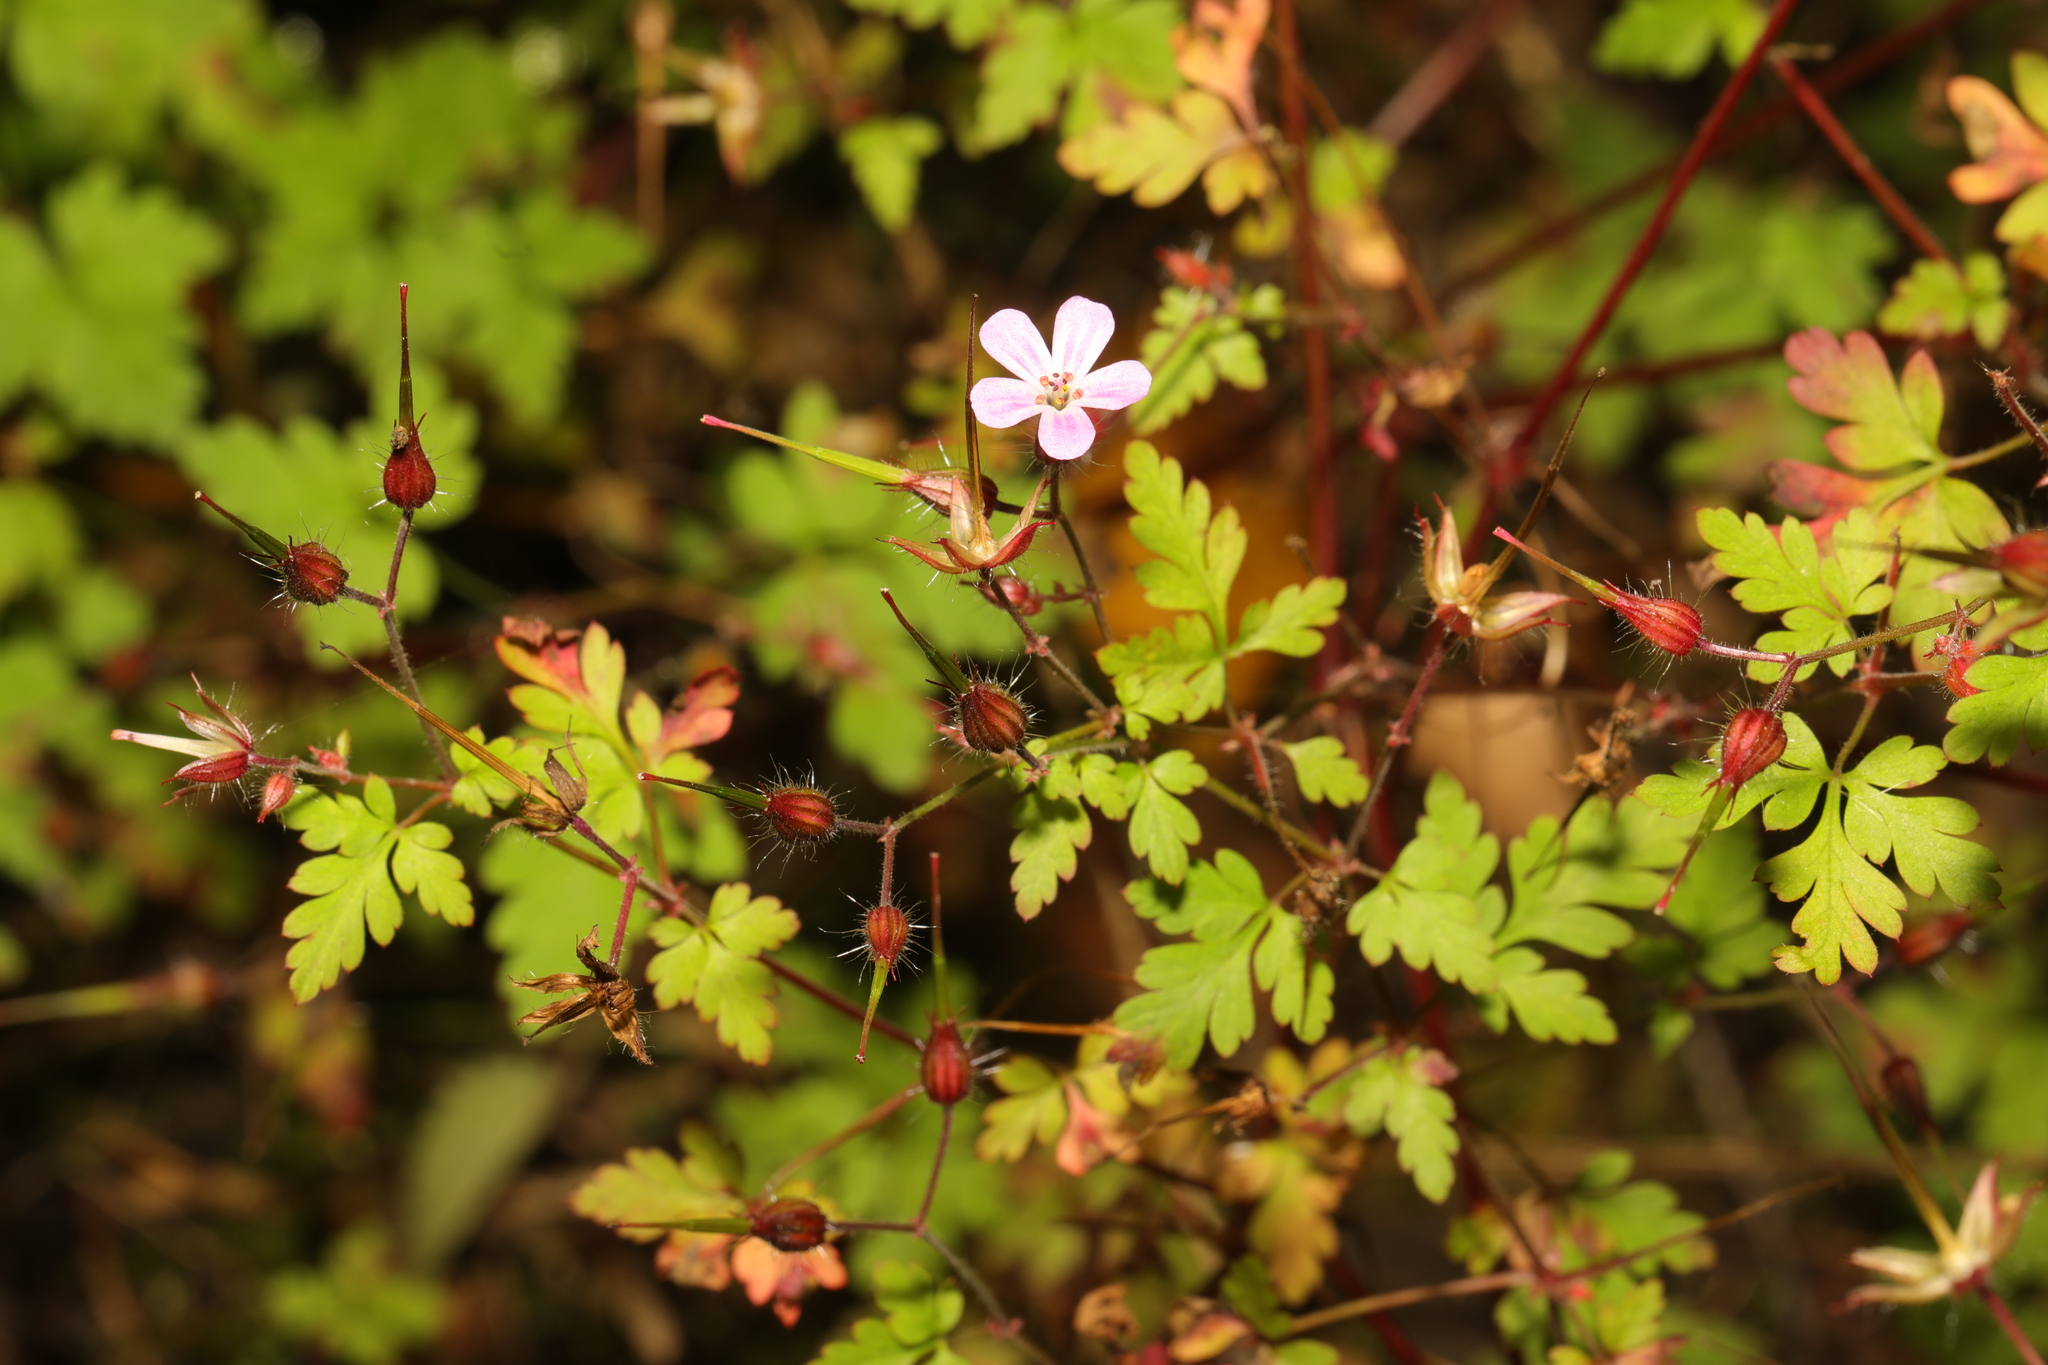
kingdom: Plantae
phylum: Tracheophyta
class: Magnoliopsida
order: Geraniales
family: Geraniaceae
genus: Geranium
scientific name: Geranium robertianum
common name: Herb-robert
